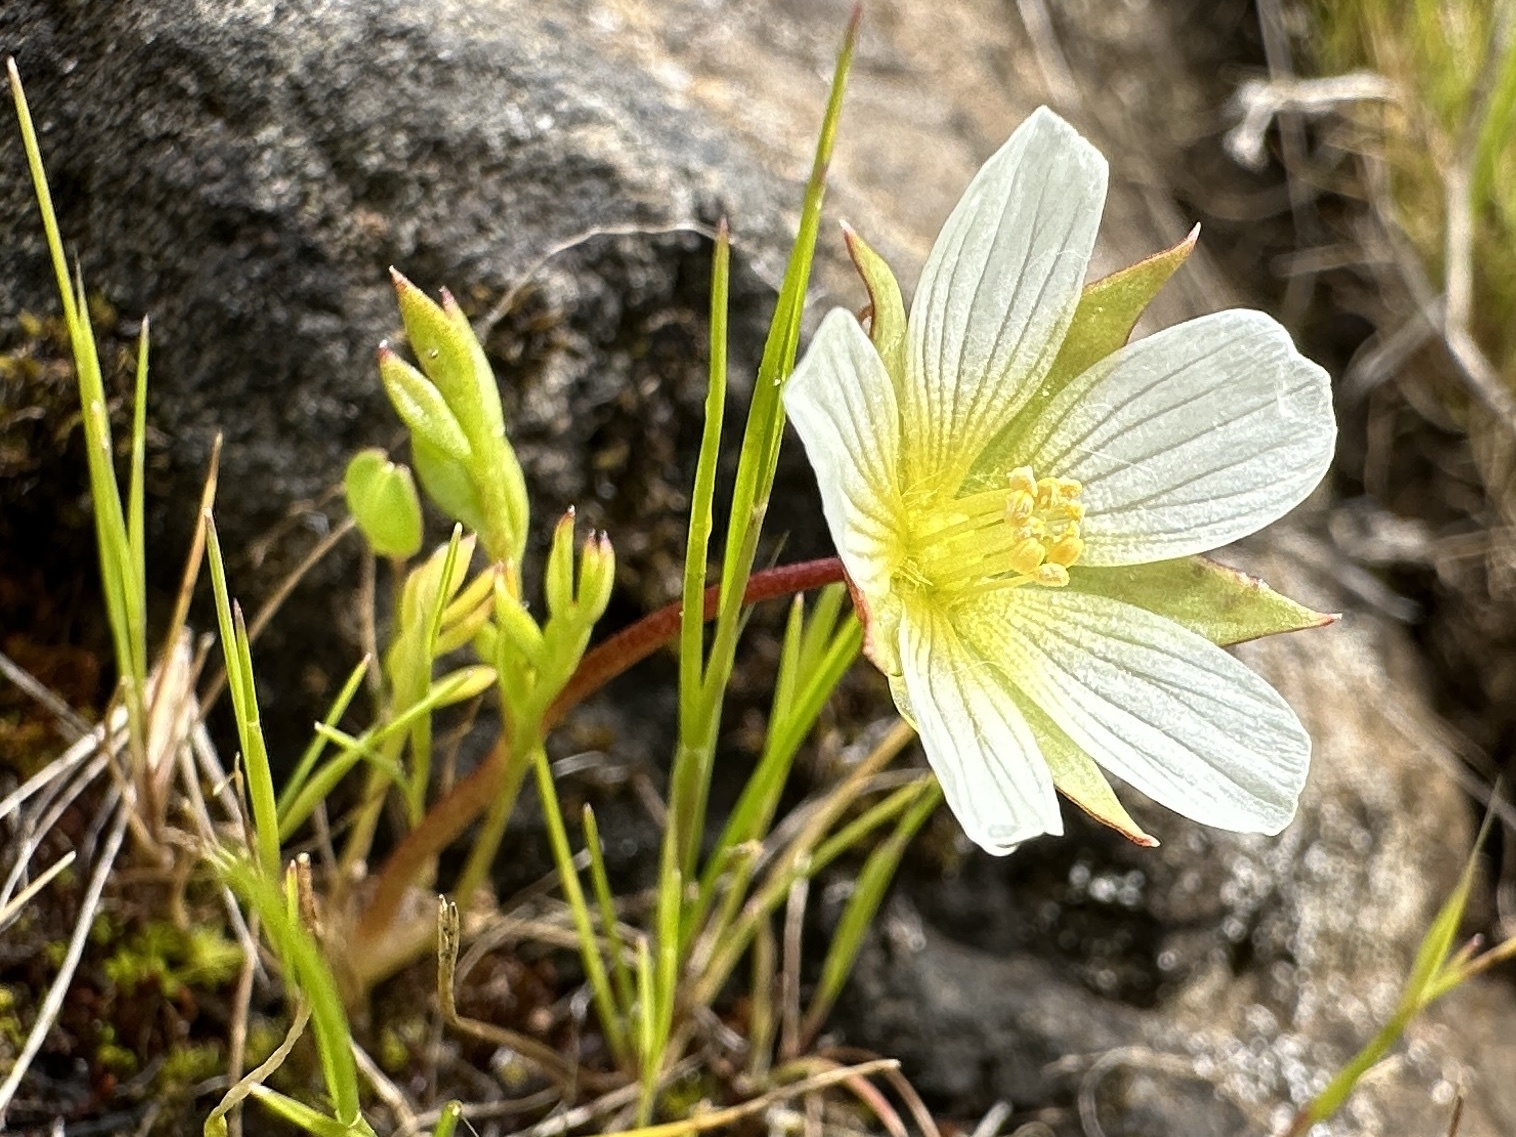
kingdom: Plantae
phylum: Tracheophyta
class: Magnoliopsida
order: Brassicales
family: Limnanthaceae
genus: Limnanthes
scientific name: Limnanthes pumila
